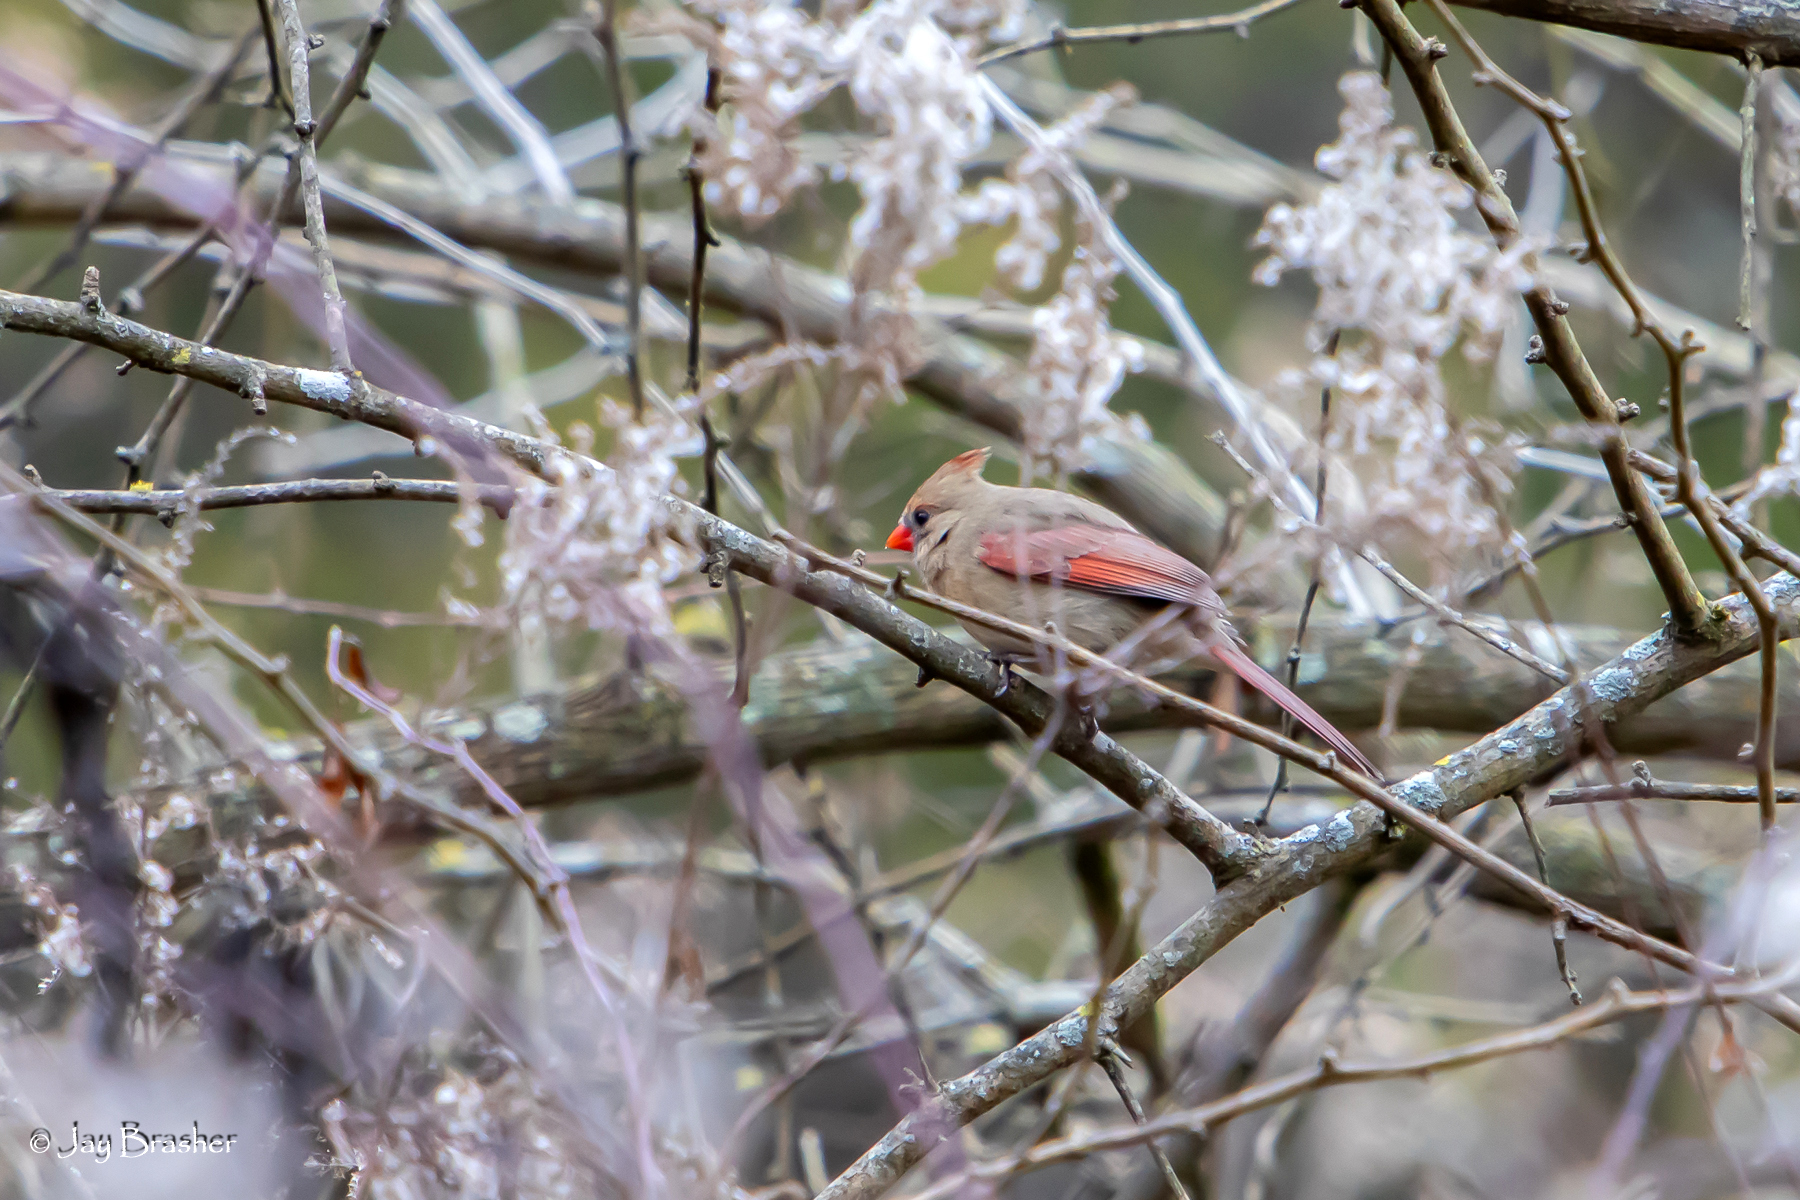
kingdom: Animalia
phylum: Chordata
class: Aves
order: Passeriformes
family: Cardinalidae
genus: Cardinalis
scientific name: Cardinalis cardinalis
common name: Northern cardinal
